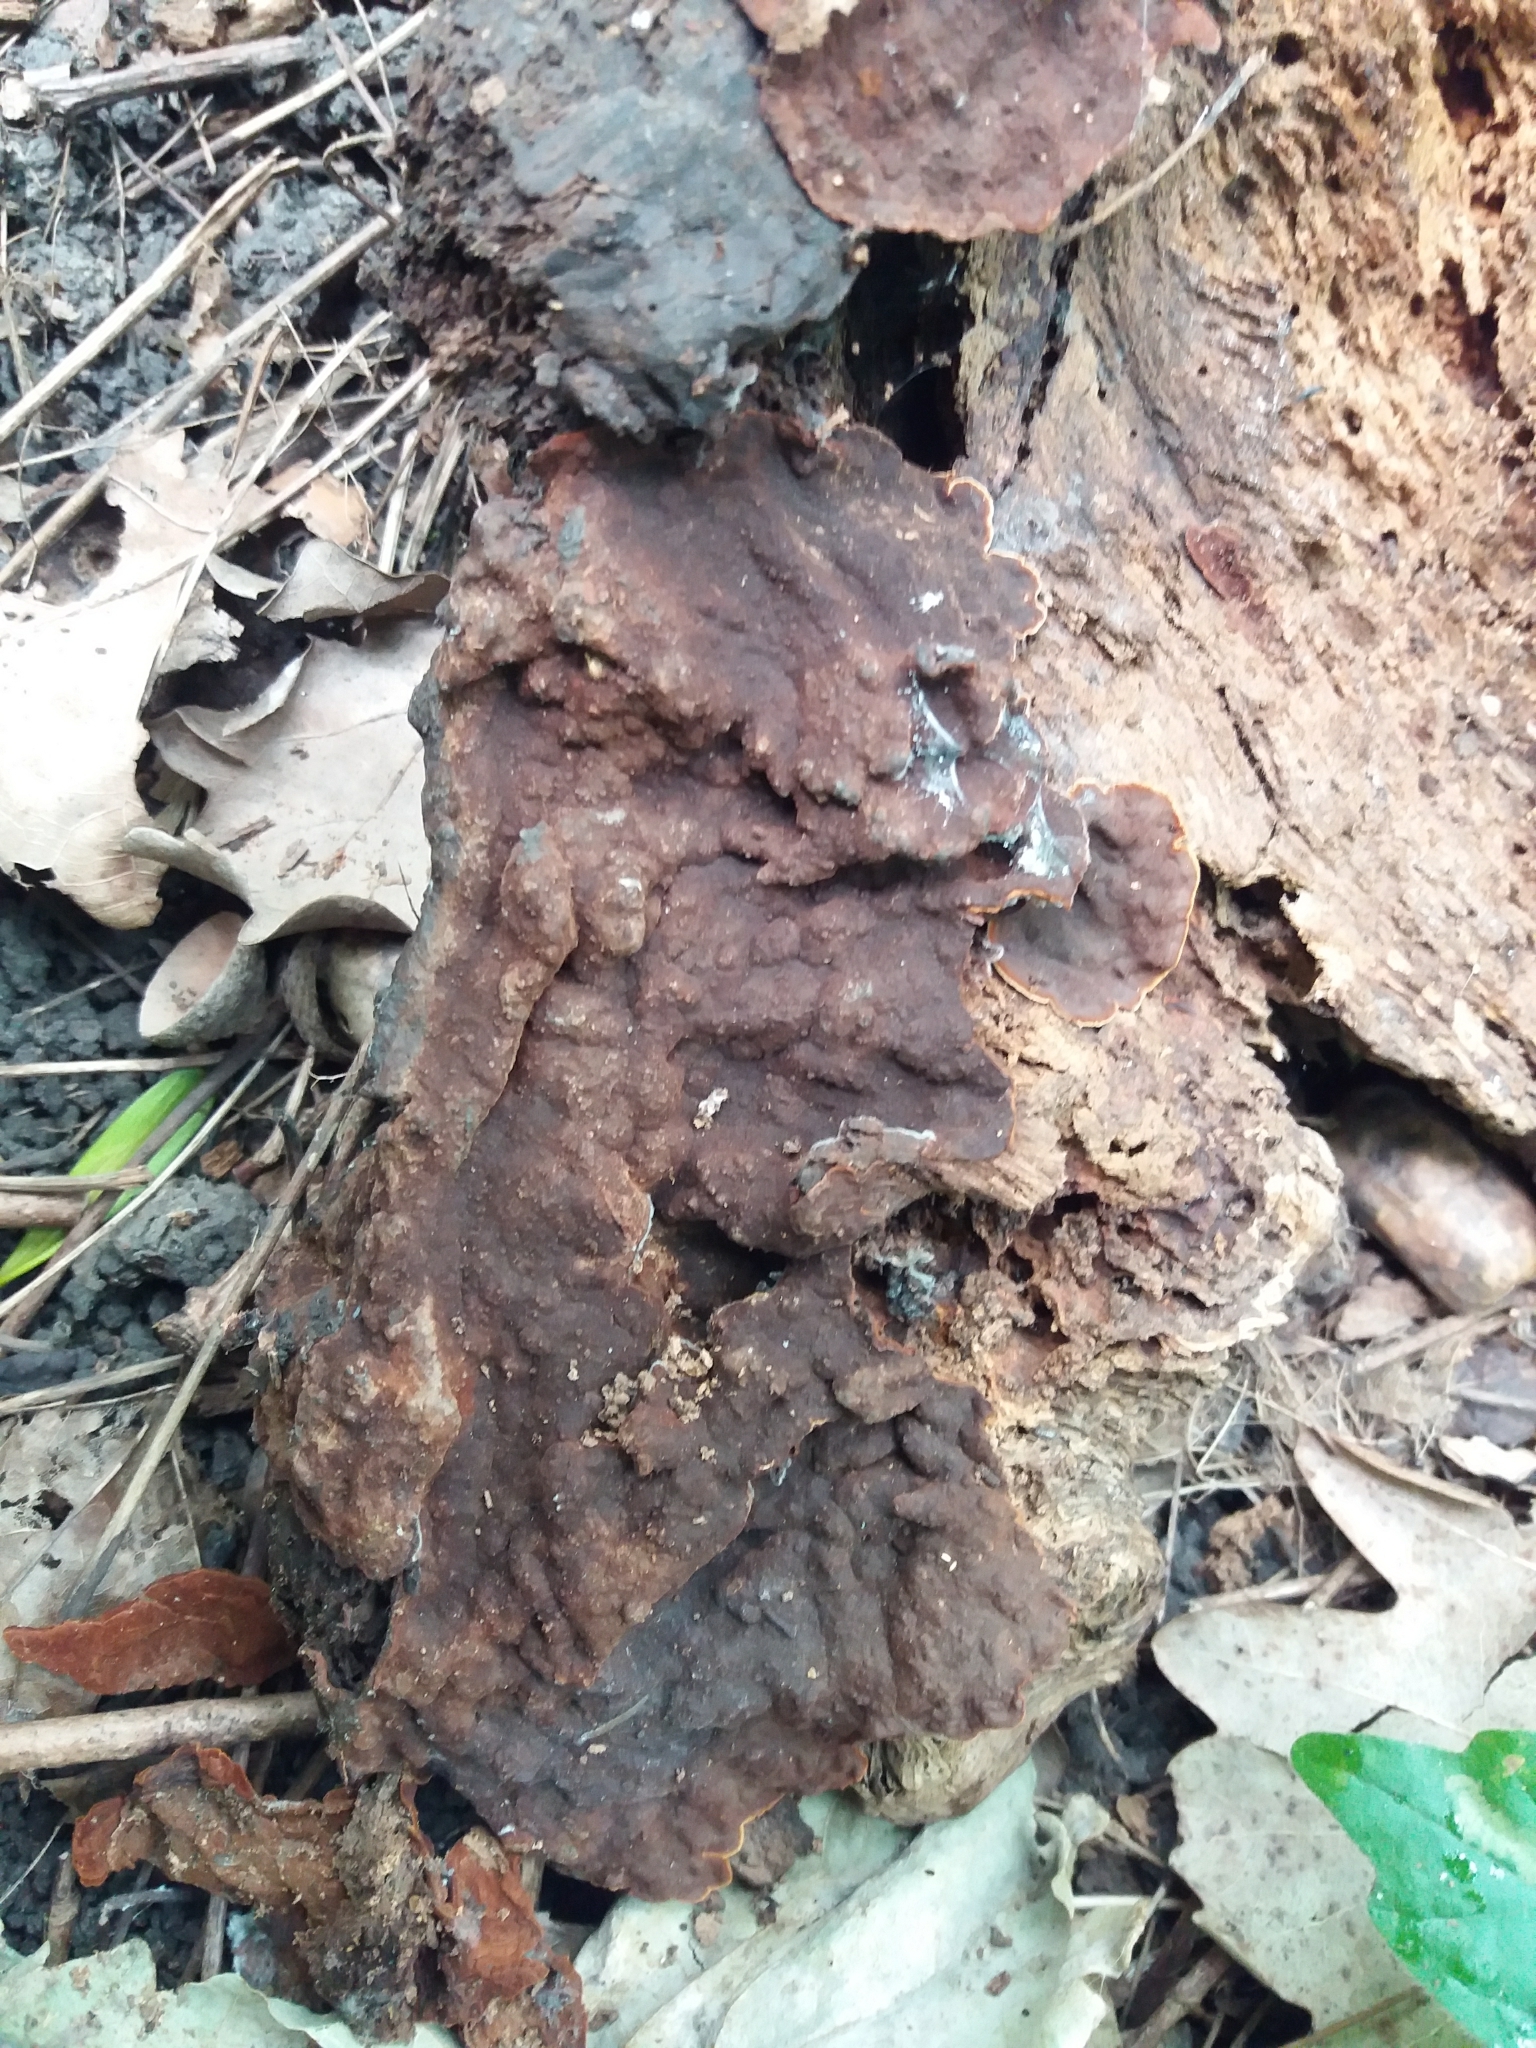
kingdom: Fungi
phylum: Basidiomycota
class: Agaricomycetes
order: Hymenochaetales
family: Hymenochaetaceae
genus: Hymenochaete
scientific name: Hymenochaete rubiginosa
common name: Oak curtain crust
